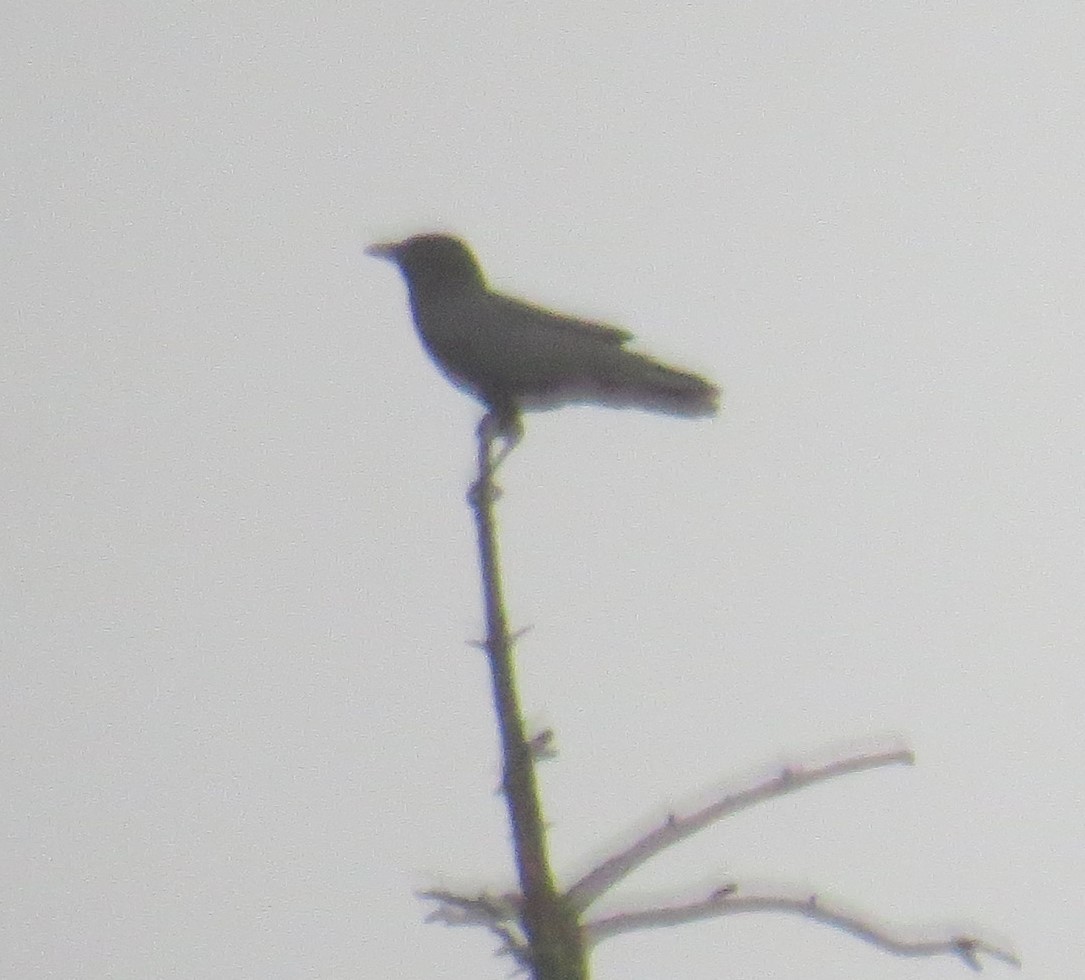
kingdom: Animalia
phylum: Chordata
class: Aves
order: Passeriformes
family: Corvidae
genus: Corvus
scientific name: Corvus brachyrhynchos
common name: American crow
